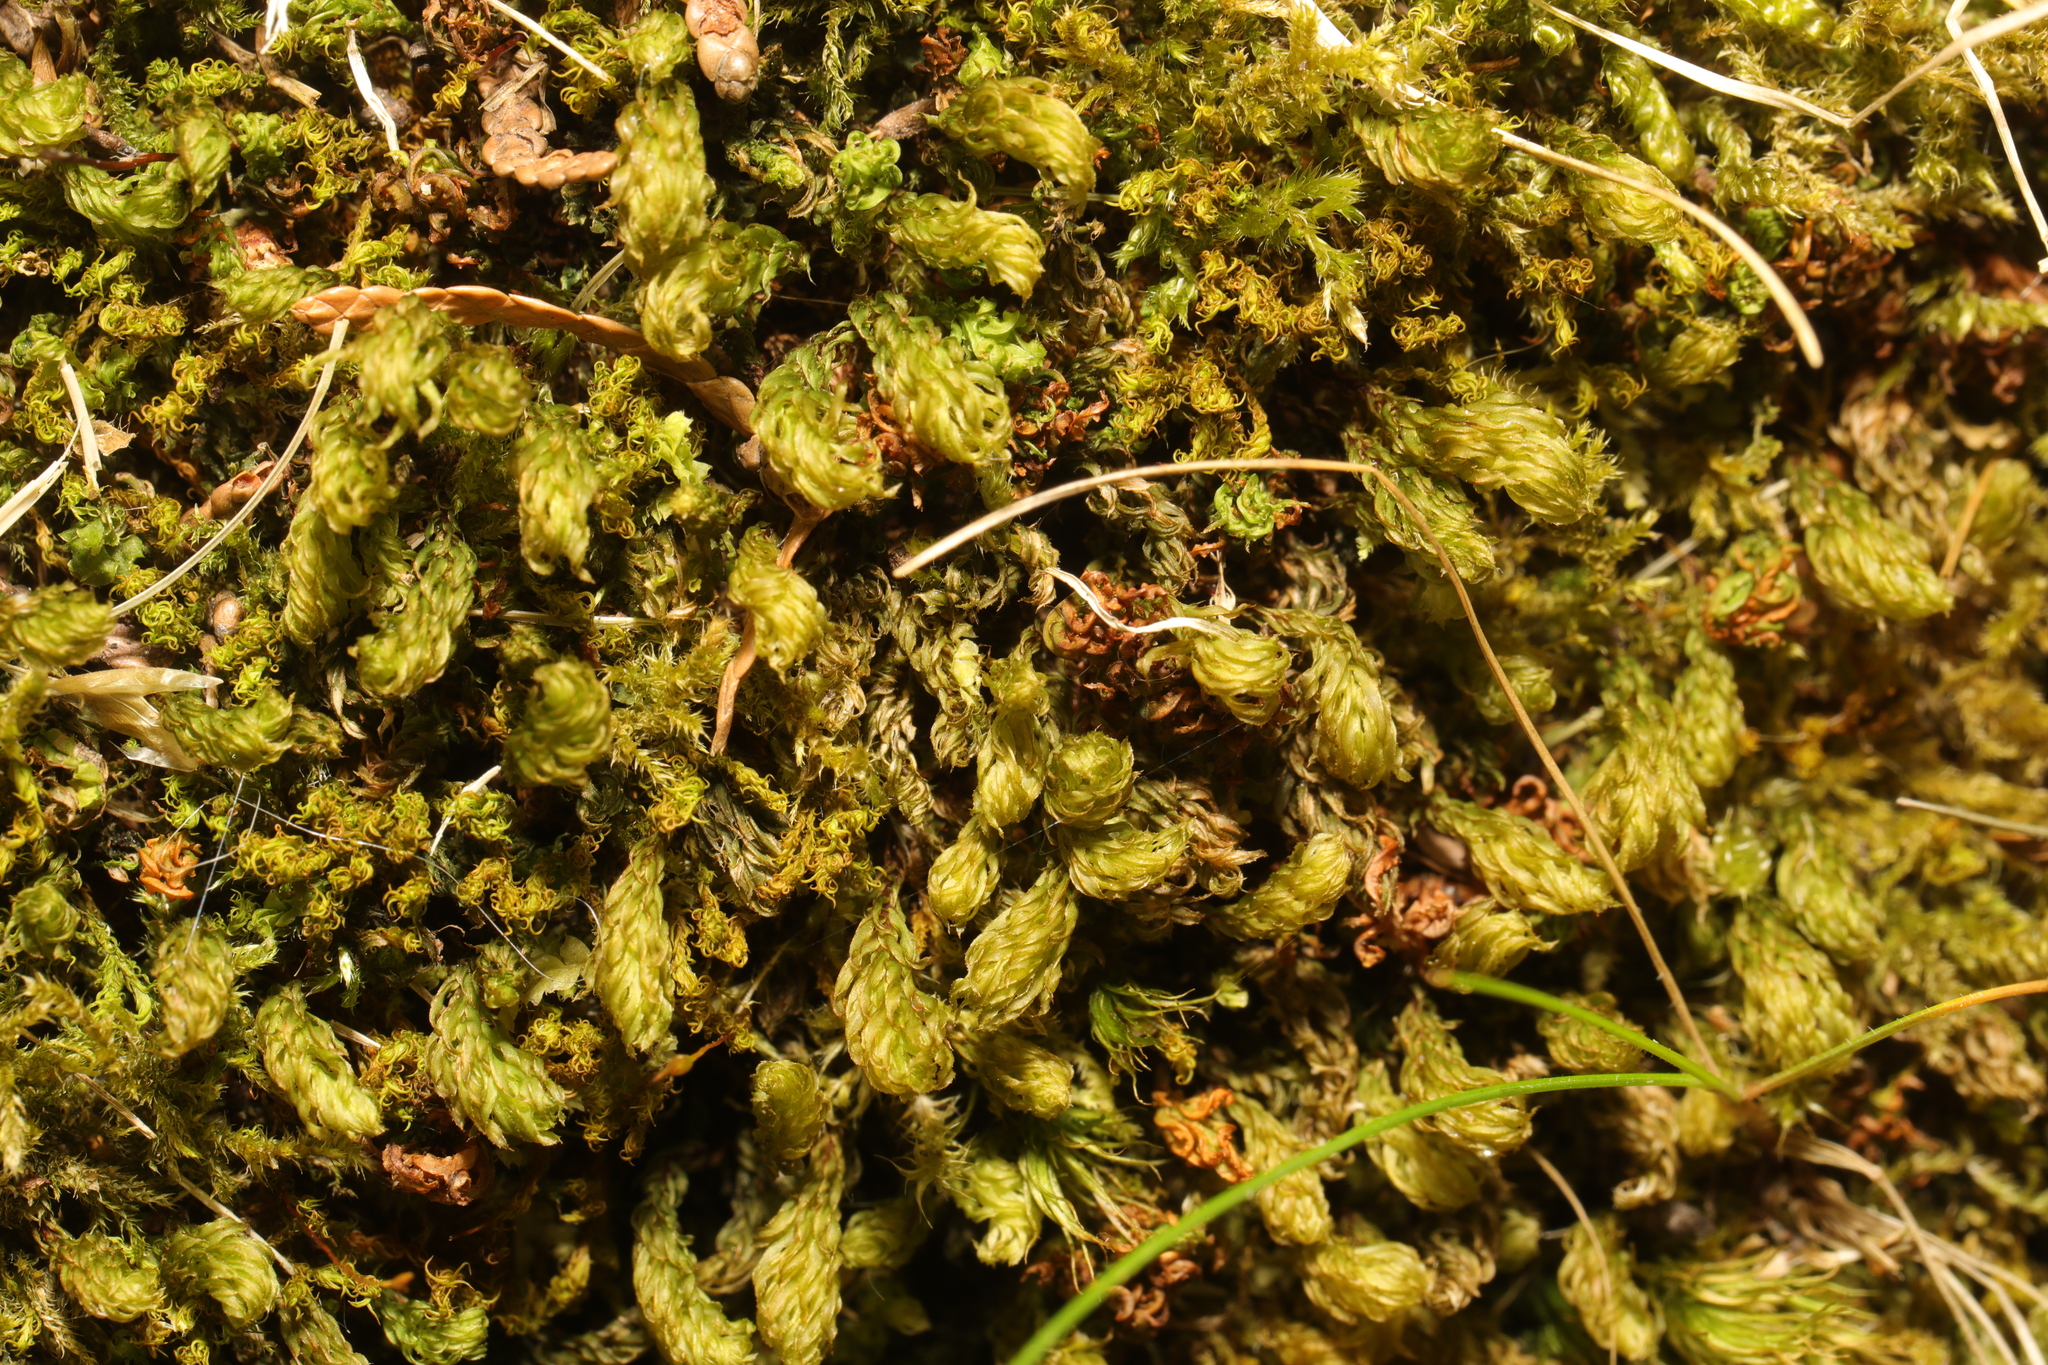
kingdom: Plantae
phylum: Bryophyta
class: Bryopsida
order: Bryales
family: Mniaceae
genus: Mnium
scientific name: Mnium hornum
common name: Swan's-neck leafy moss
